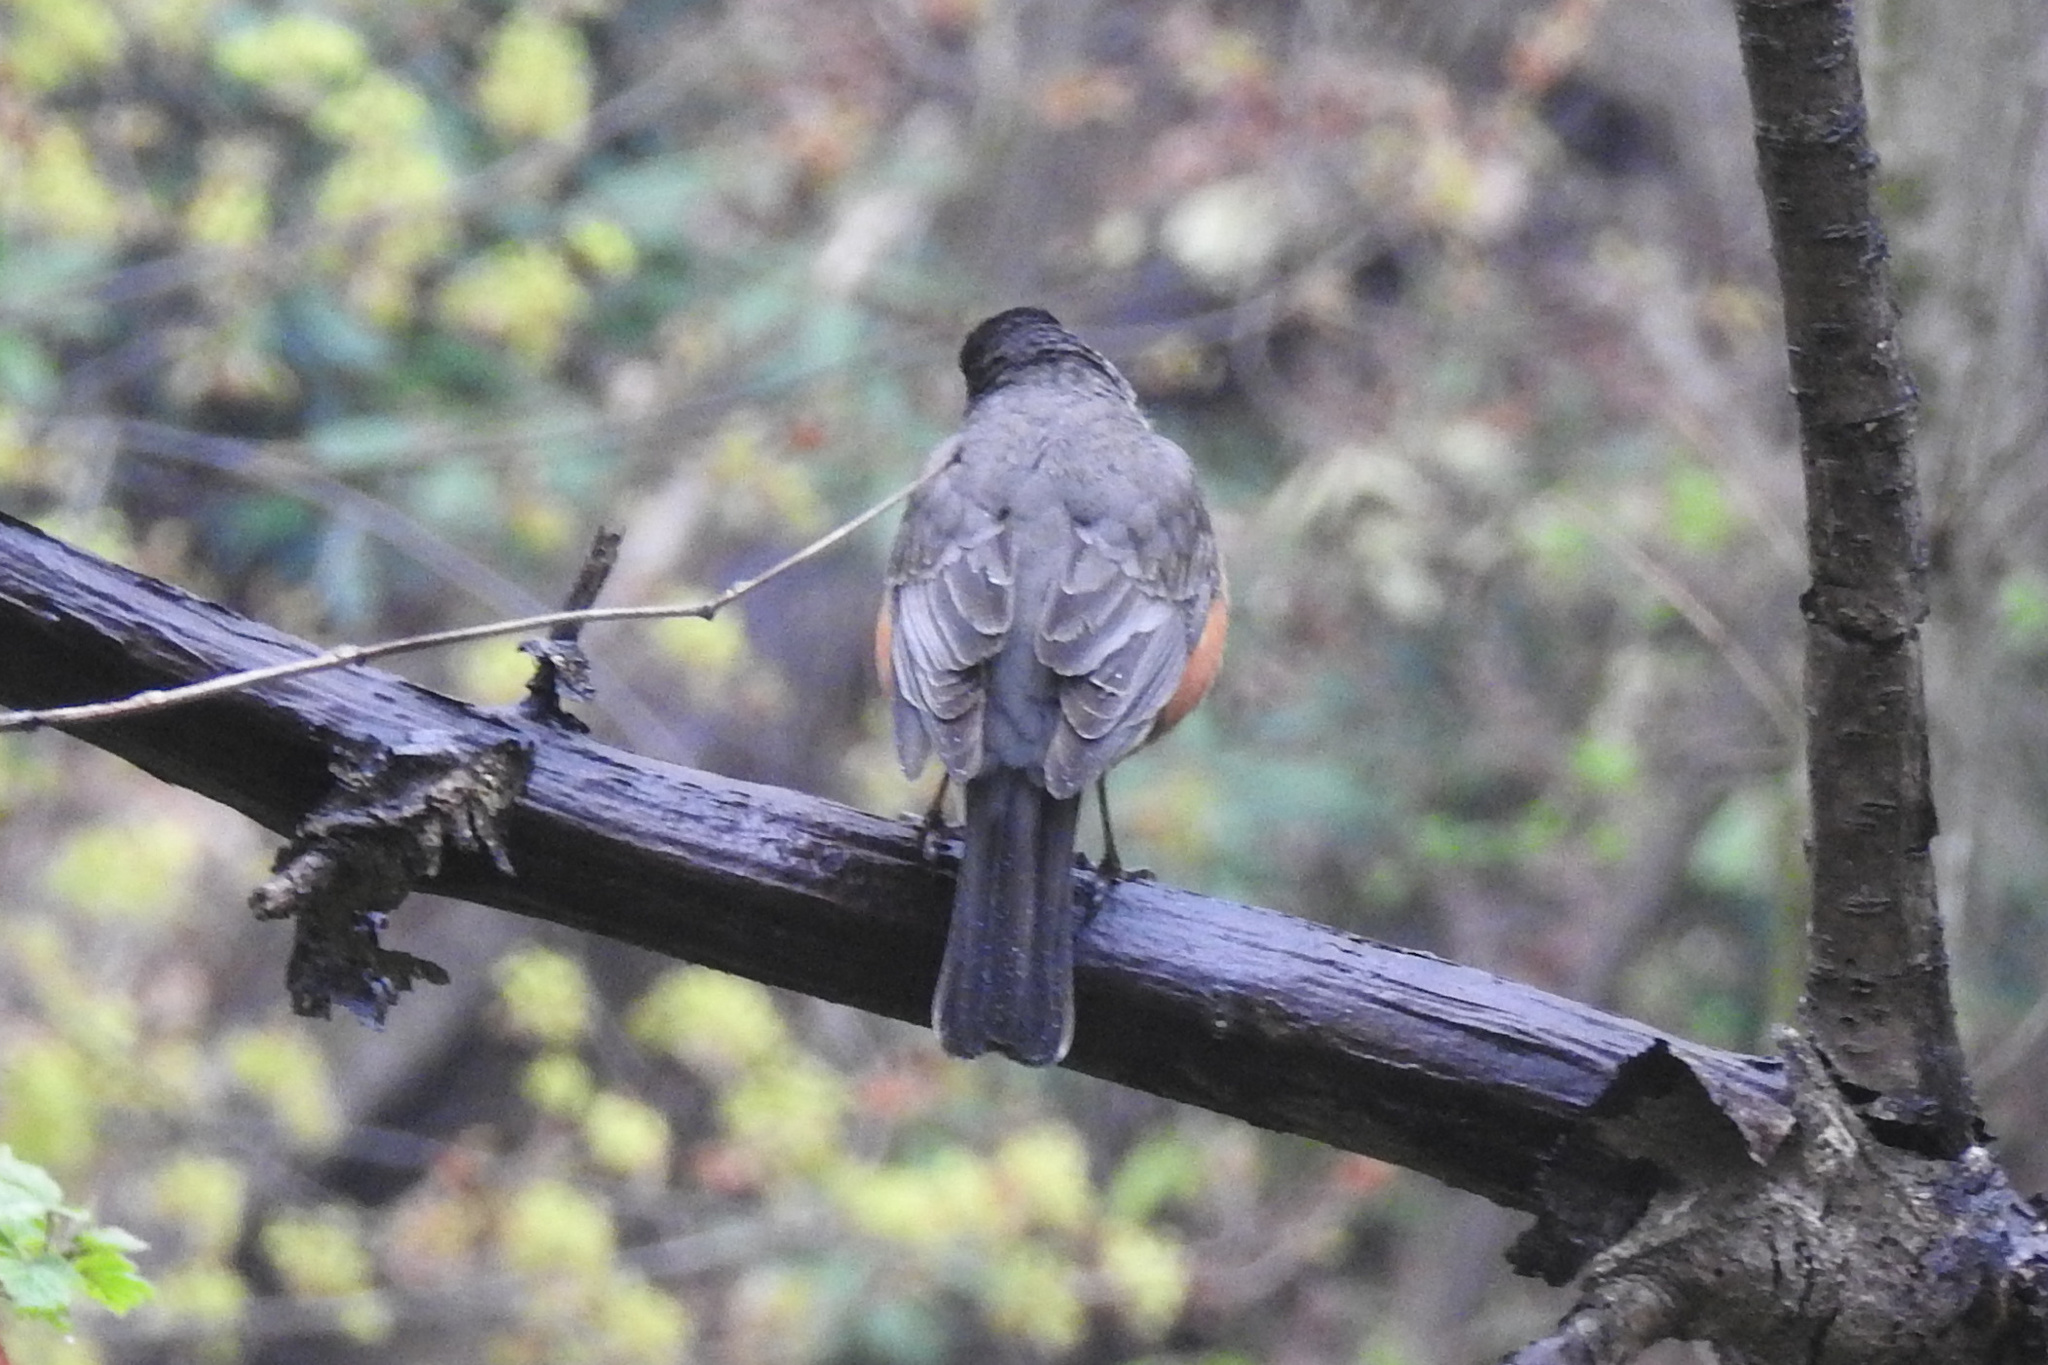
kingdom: Animalia
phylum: Chordata
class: Aves
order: Passeriformes
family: Turdidae
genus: Turdus
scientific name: Turdus migratorius
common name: American robin
